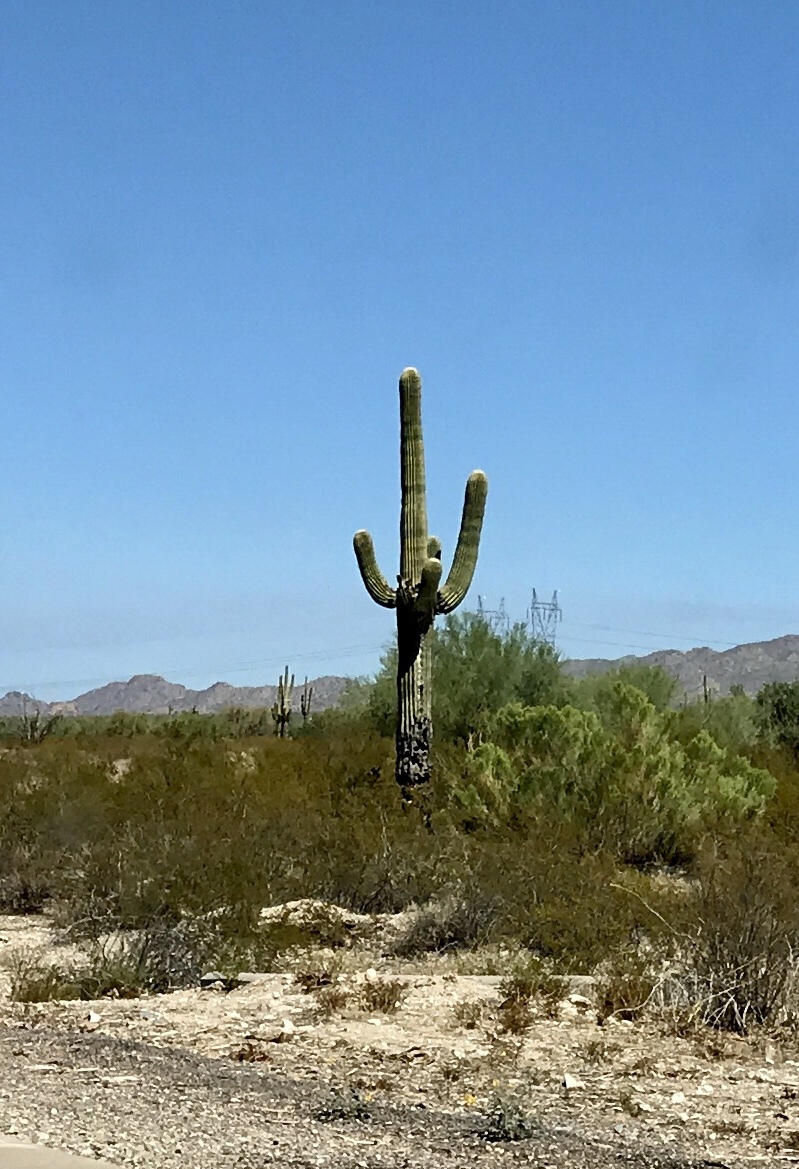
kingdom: Plantae
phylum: Tracheophyta
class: Magnoliopsida
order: Caryophyllales
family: Cactaceae
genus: Carnegiea
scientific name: Carnegiea gigantea
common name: Saguaro
